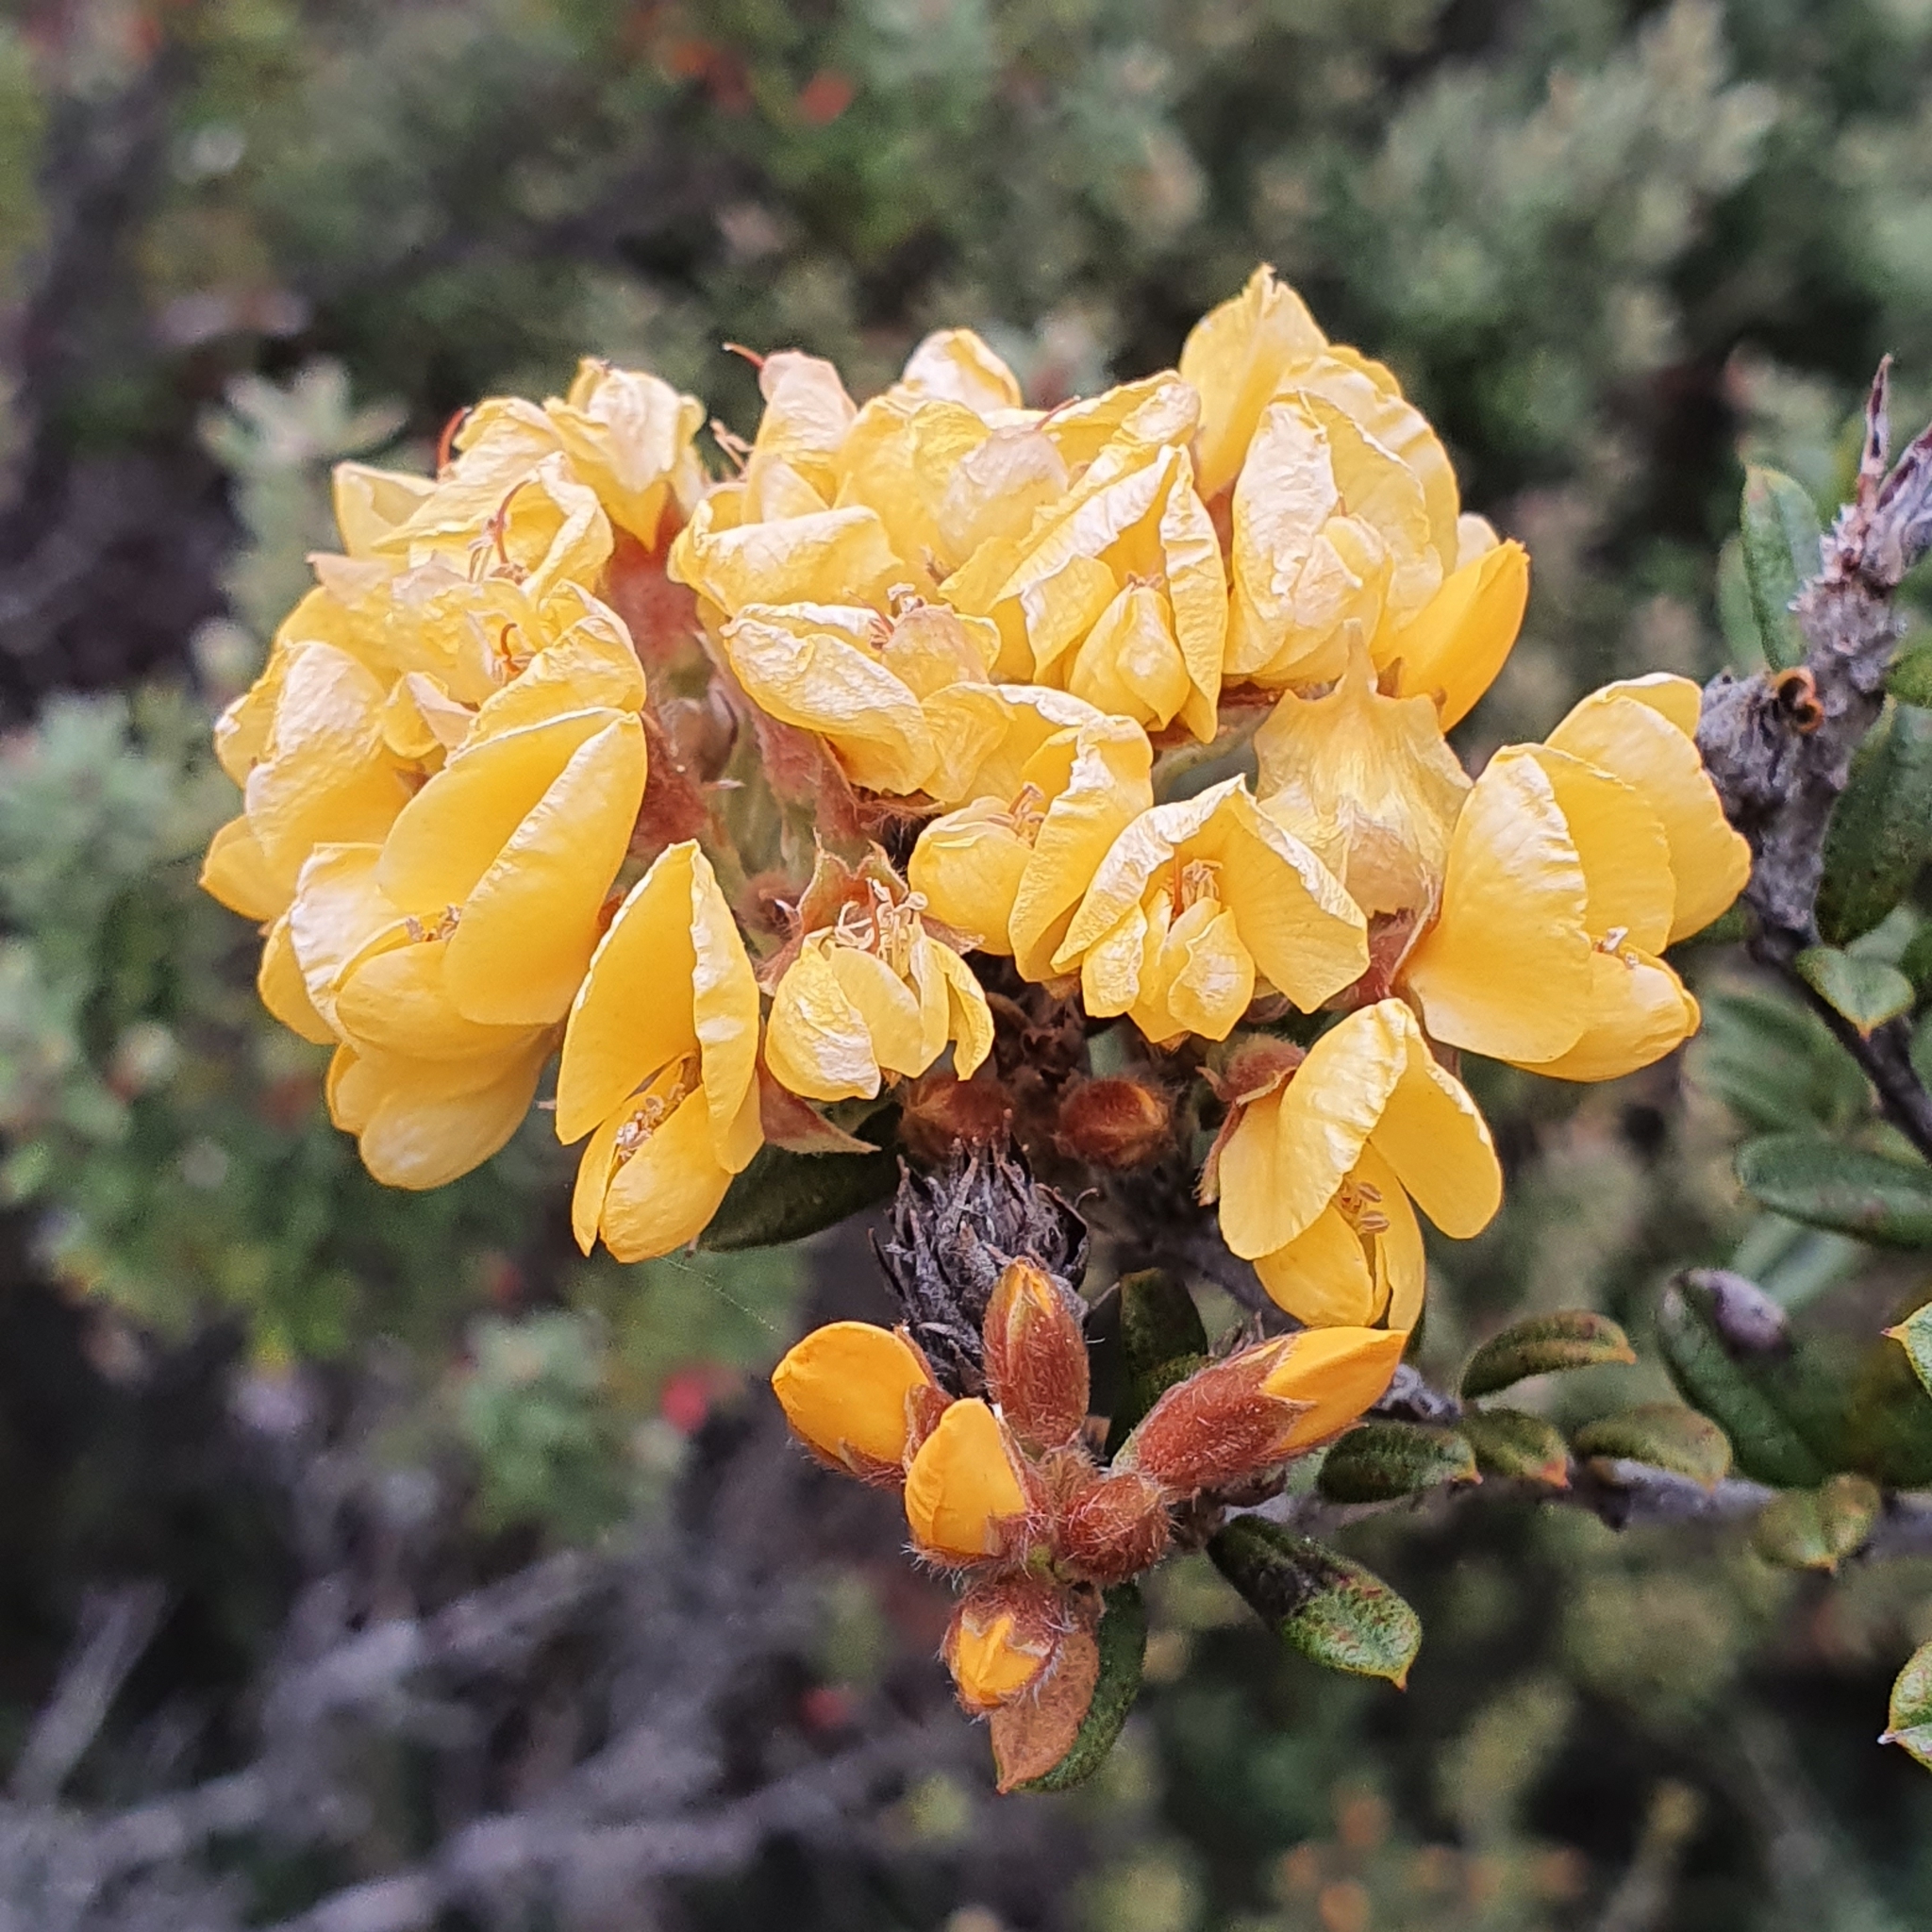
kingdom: Plantae
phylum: Tracheophyta
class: Magnoliopsida
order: Fabales
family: Fabaceae
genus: Oxylobium
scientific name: Oxylobium ellipticum
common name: Golden shaggy-pea
